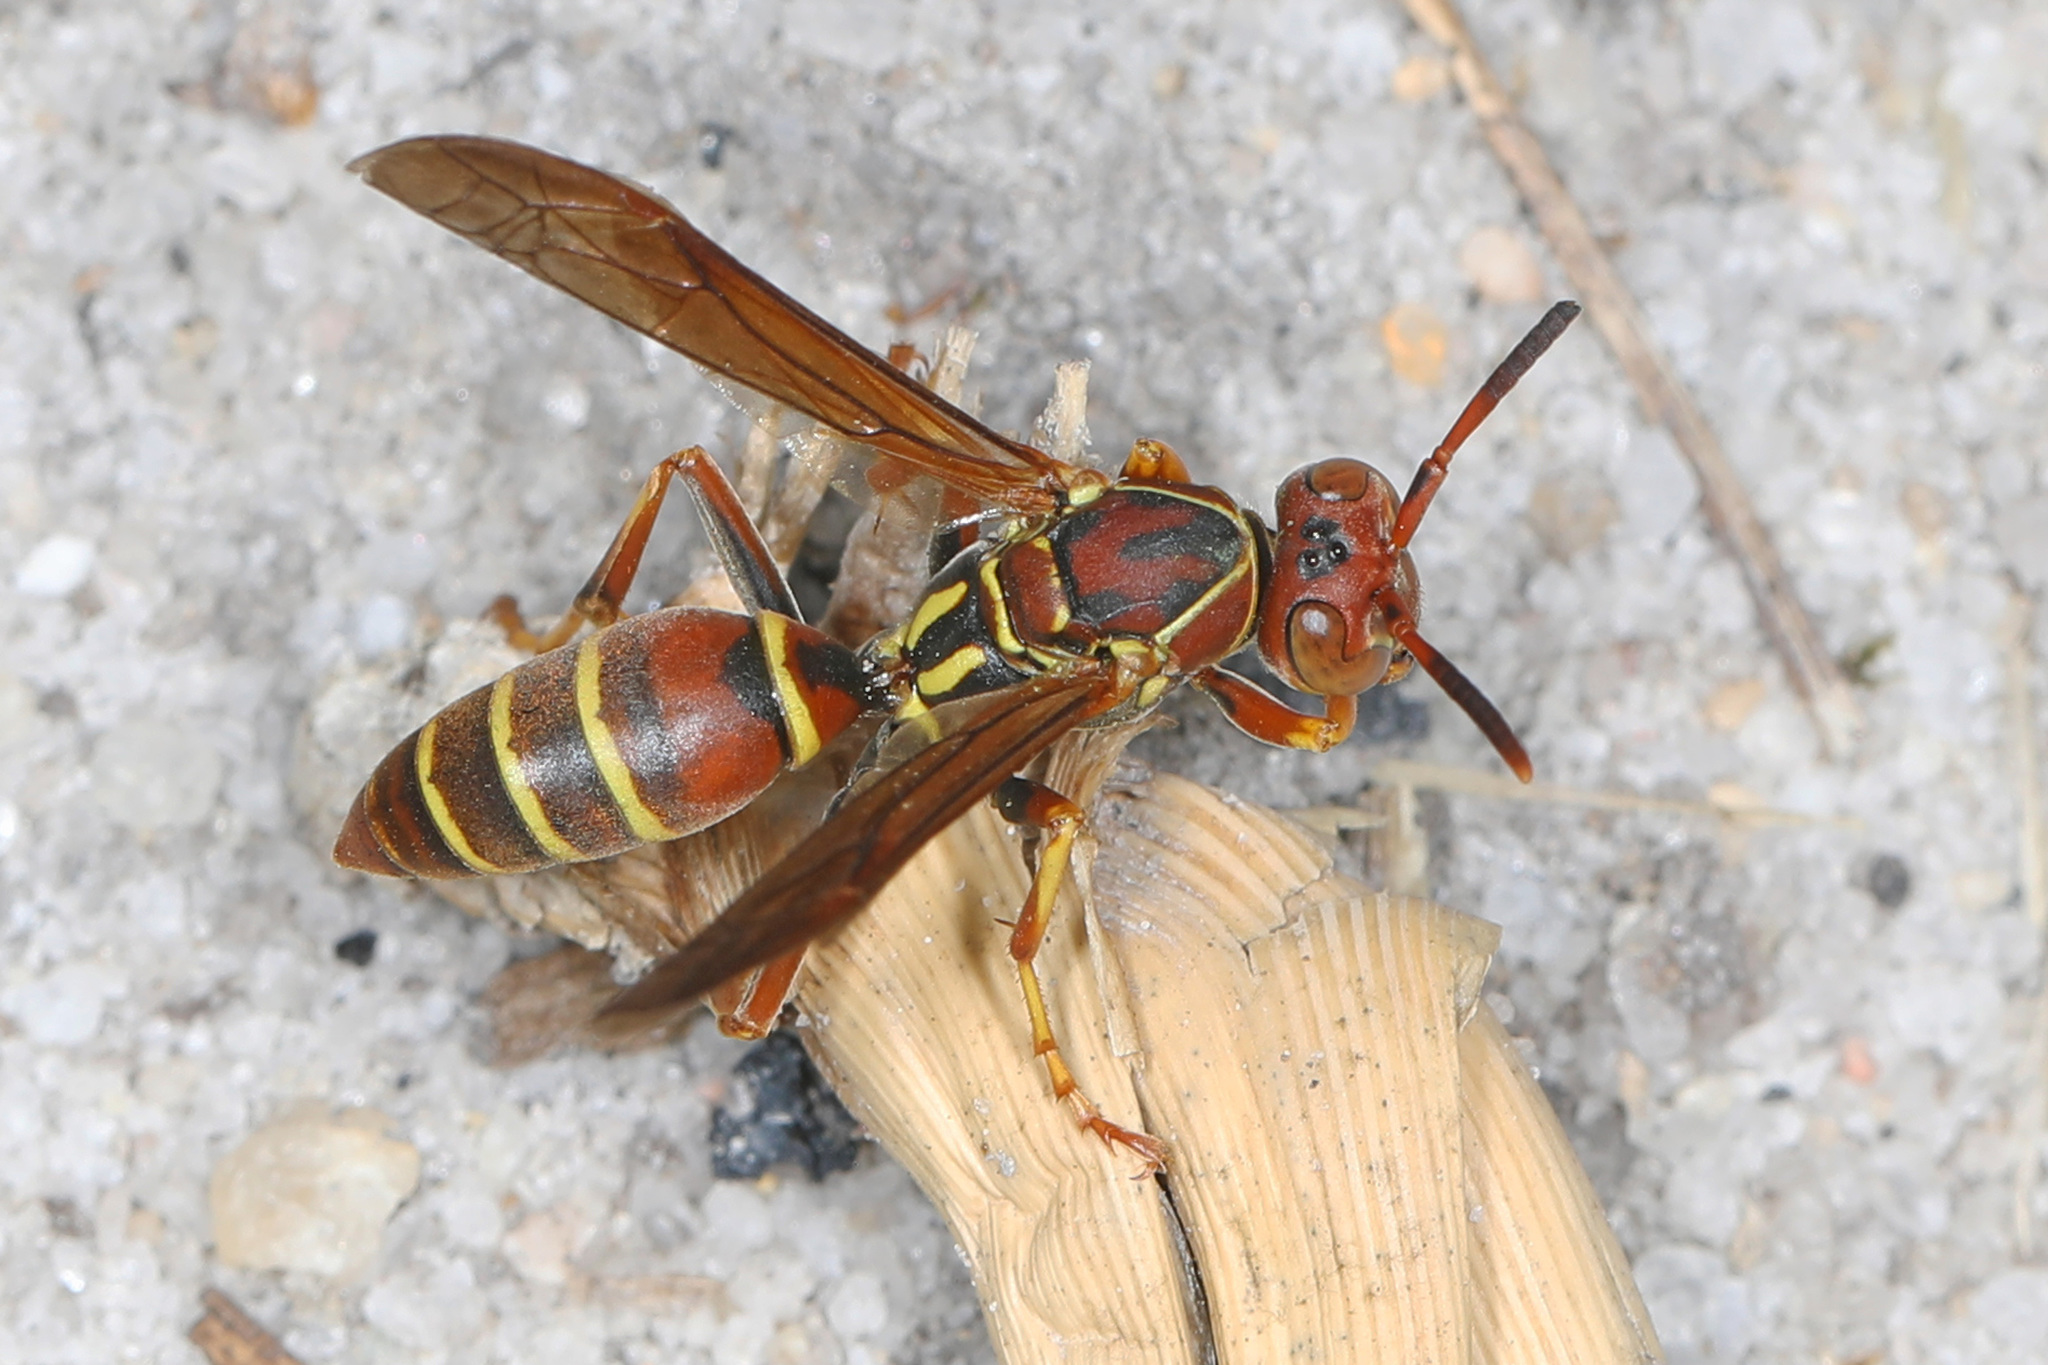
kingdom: Animalia
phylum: Arthropoda
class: Insecta
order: Hymenoptera
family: Eumenidae
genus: Polistes
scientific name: Polistes dorsalis
